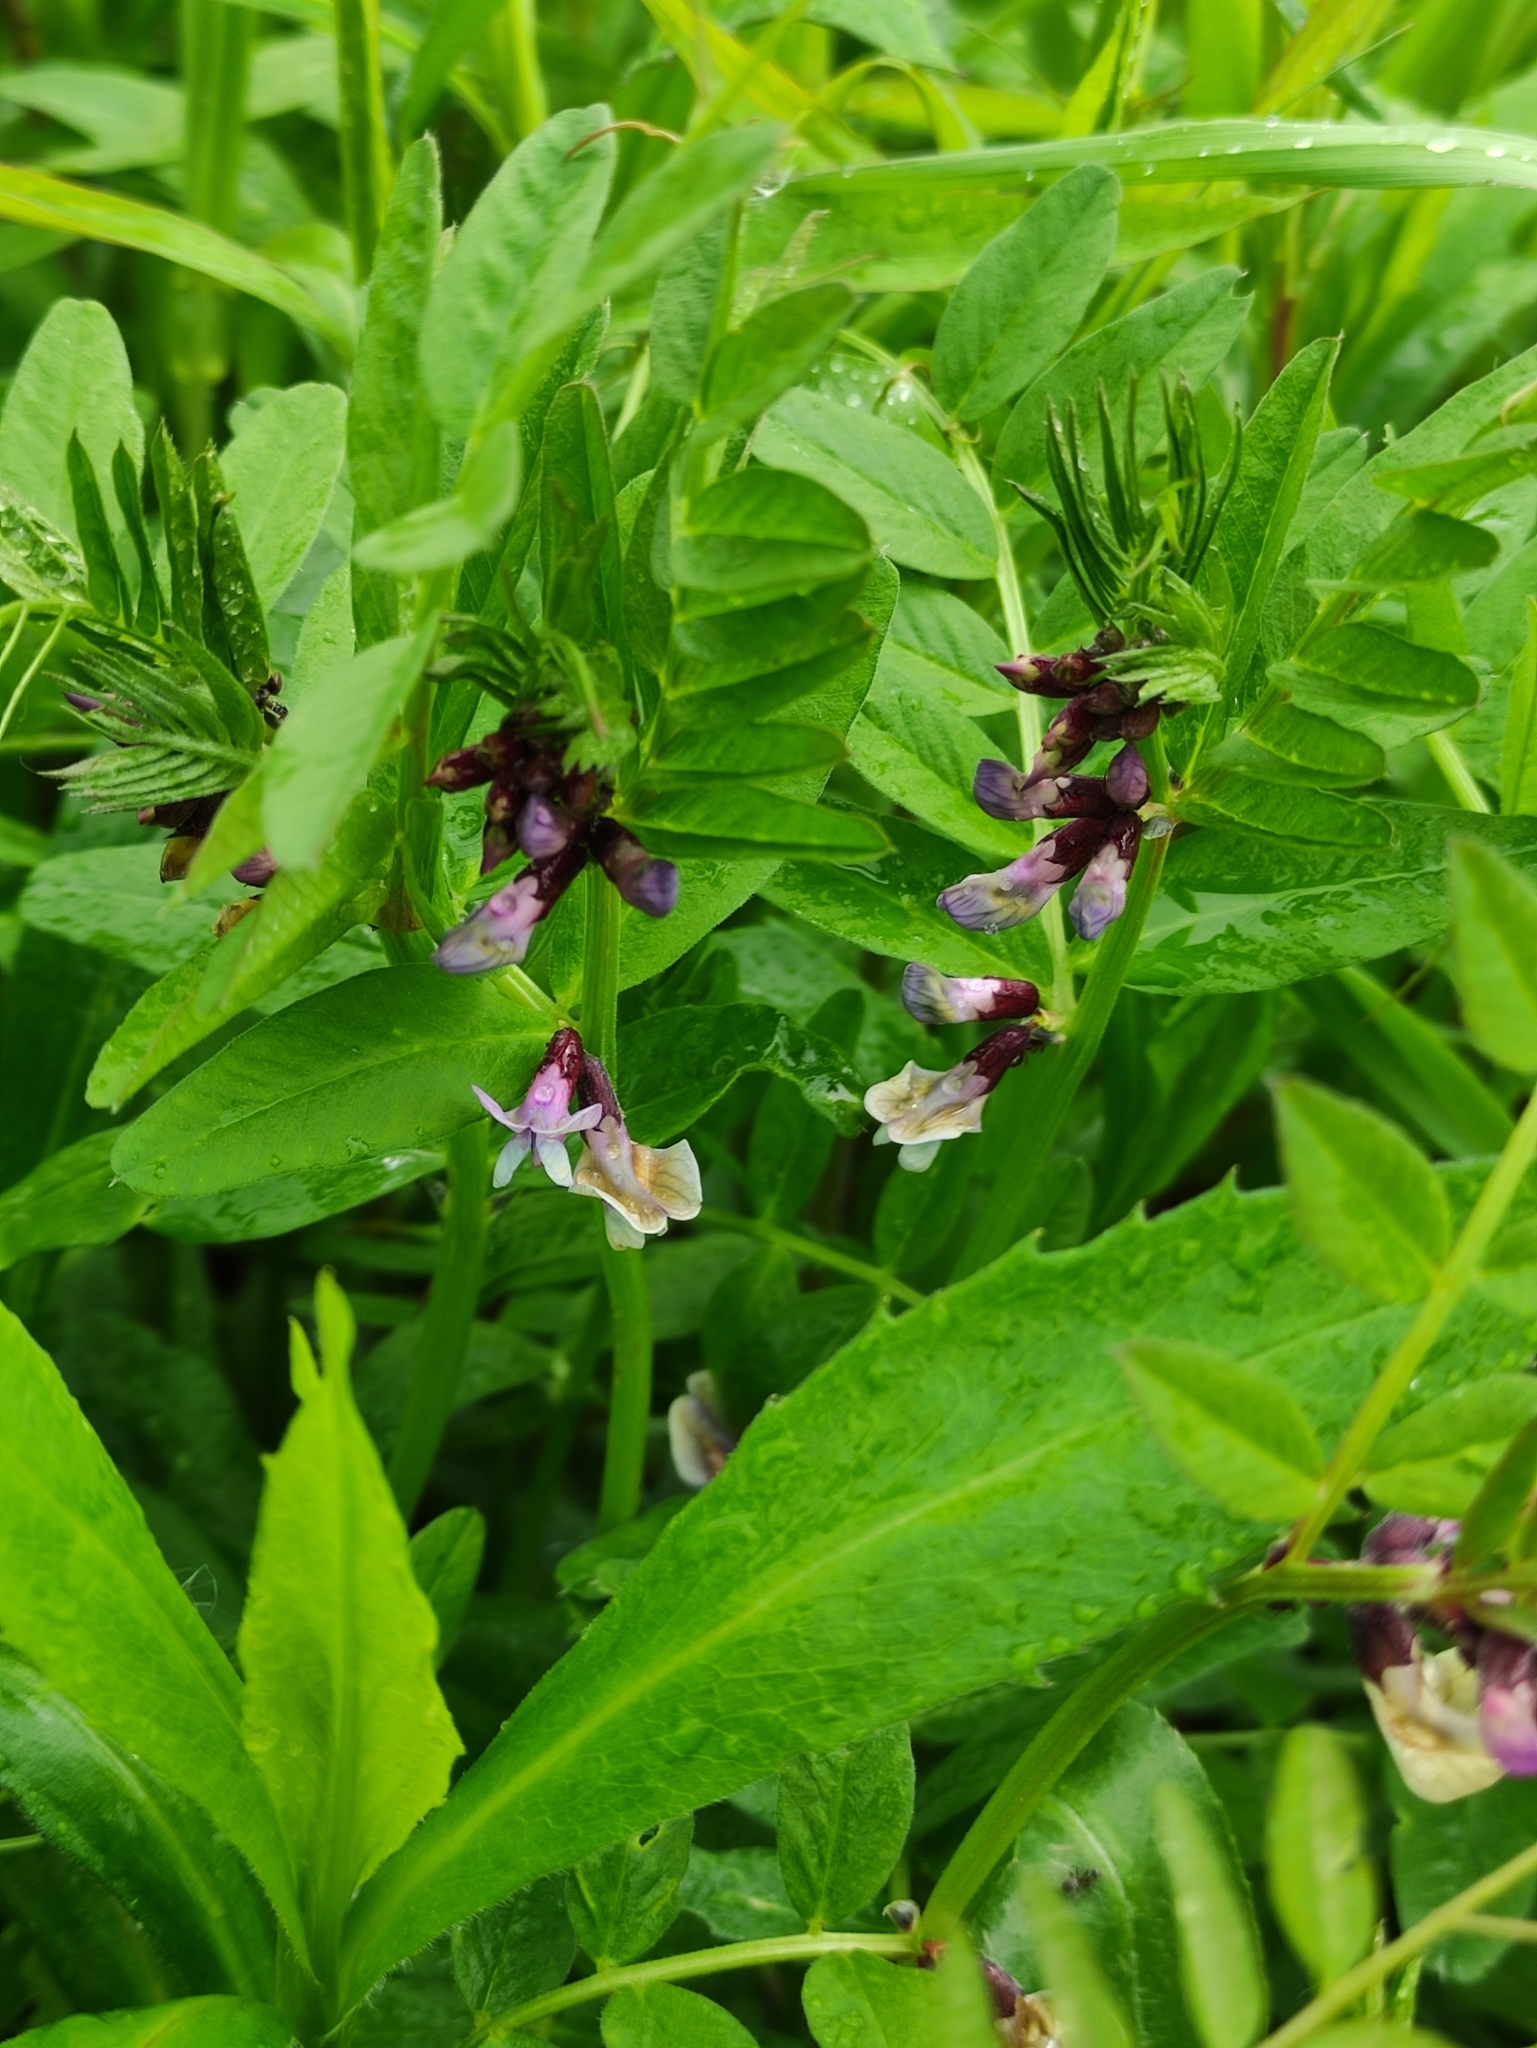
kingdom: Plantae
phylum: Tracheophyta
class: Magnoliopsida
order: Fabales
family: Fabaceae
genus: Vicia
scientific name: Vicia sepium
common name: Bush vetch
